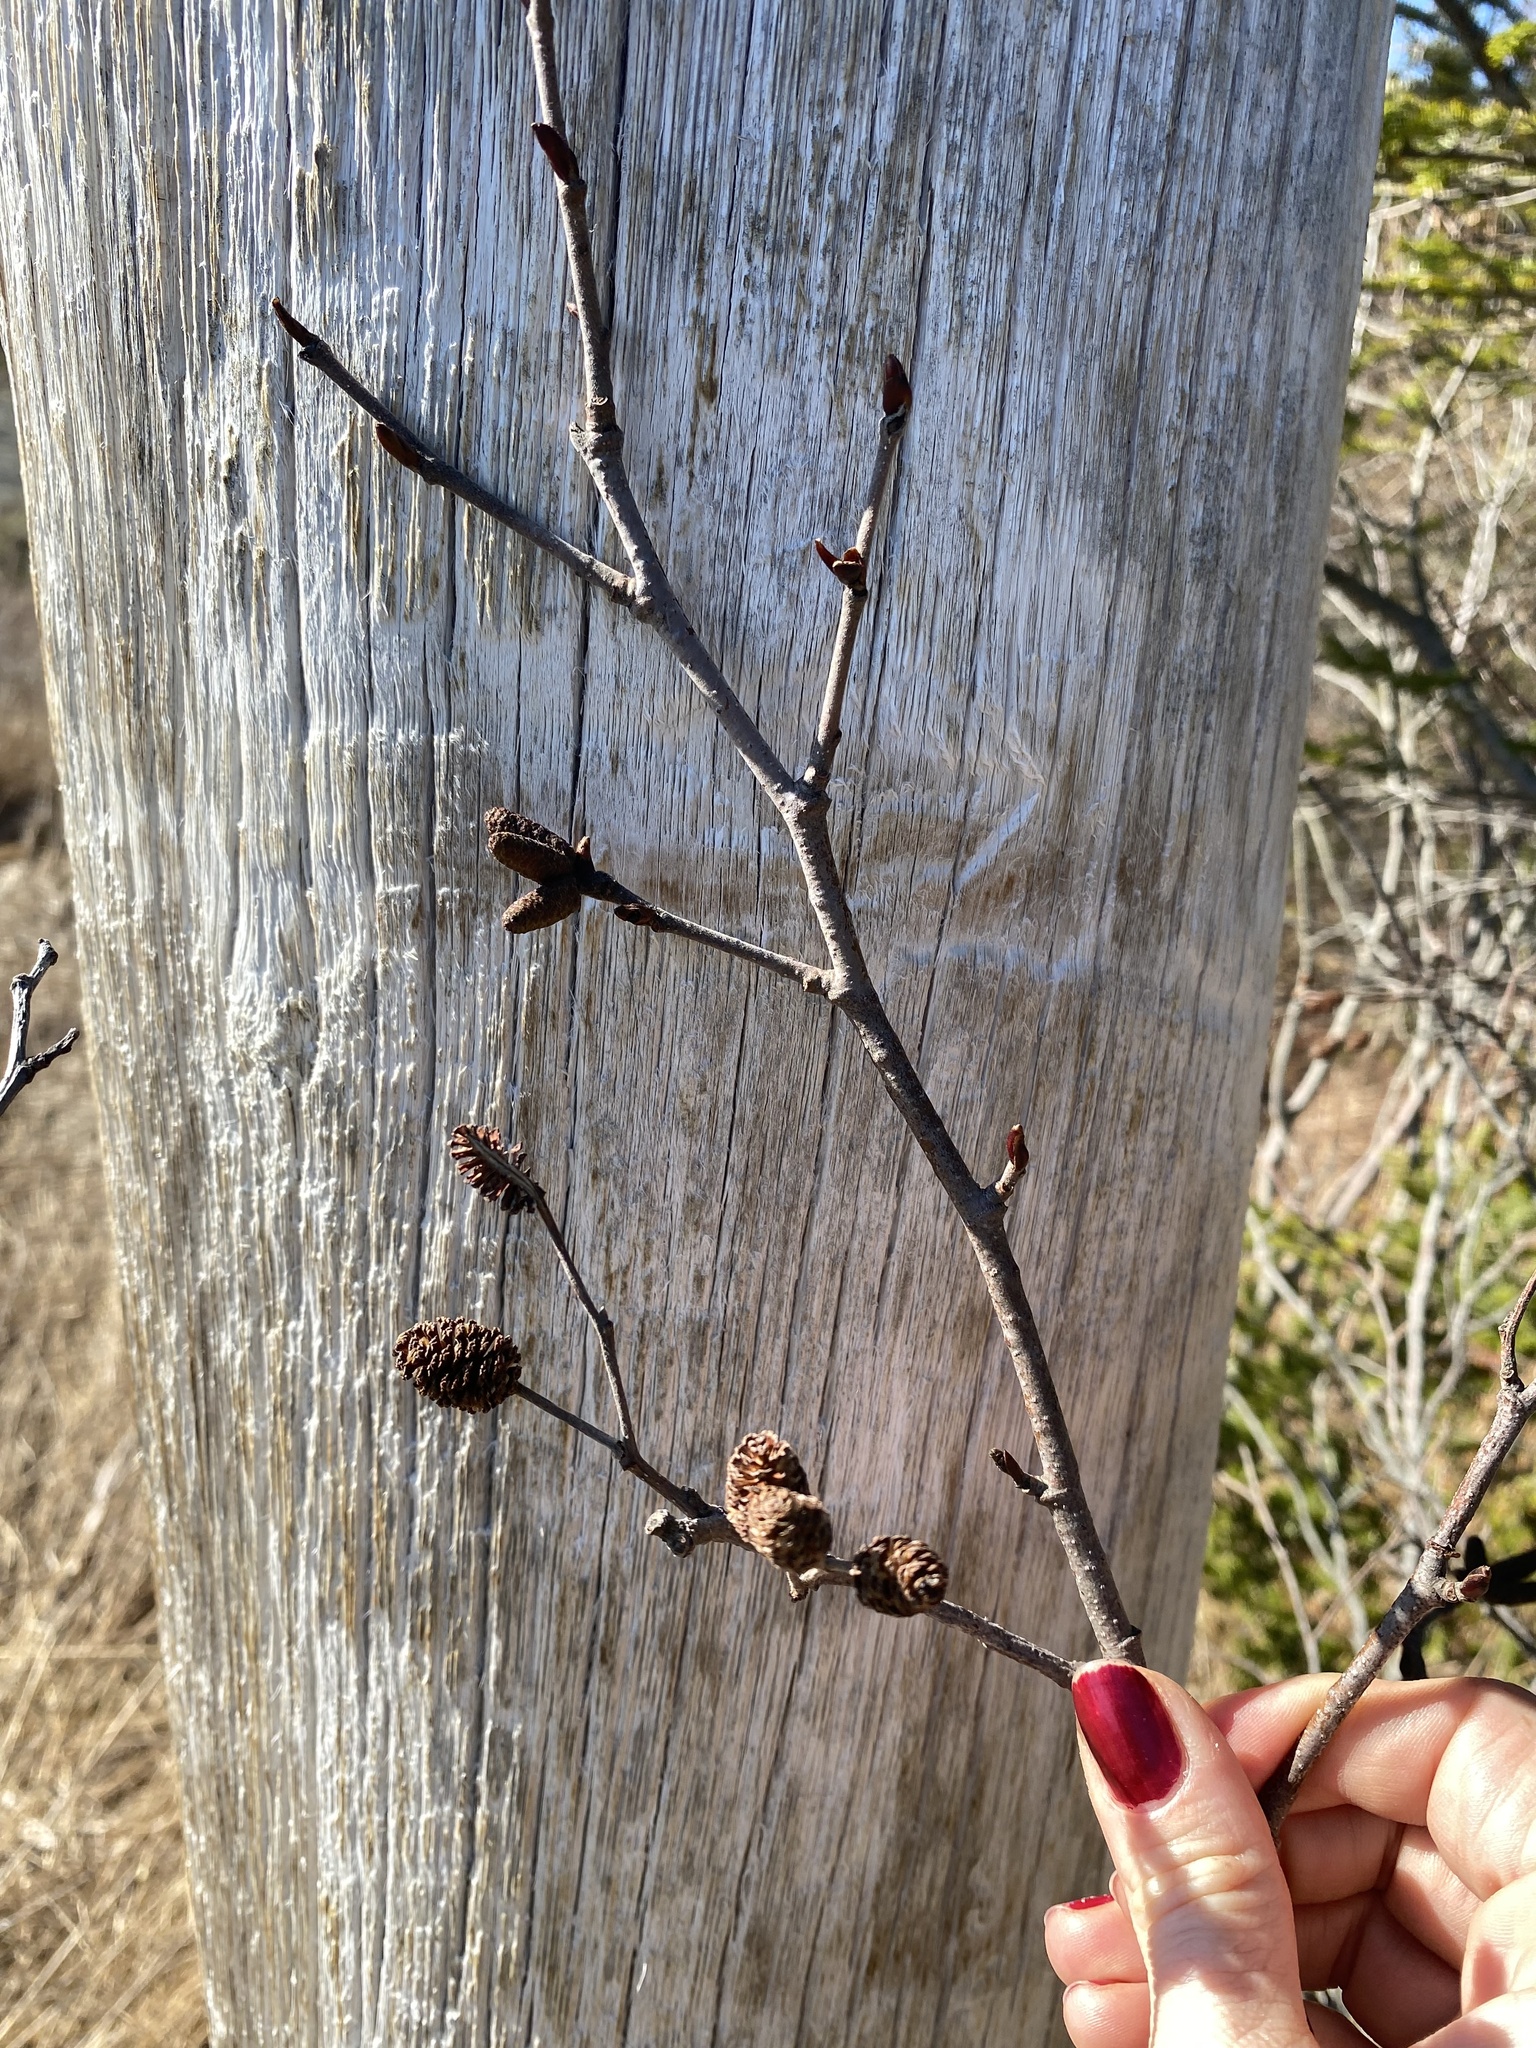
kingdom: Plantae
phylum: Tracheophyta
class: Magnoliopsida
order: Fagales
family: Betulaceae
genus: Alnus
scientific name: Alnus alnobetula
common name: Green alder
